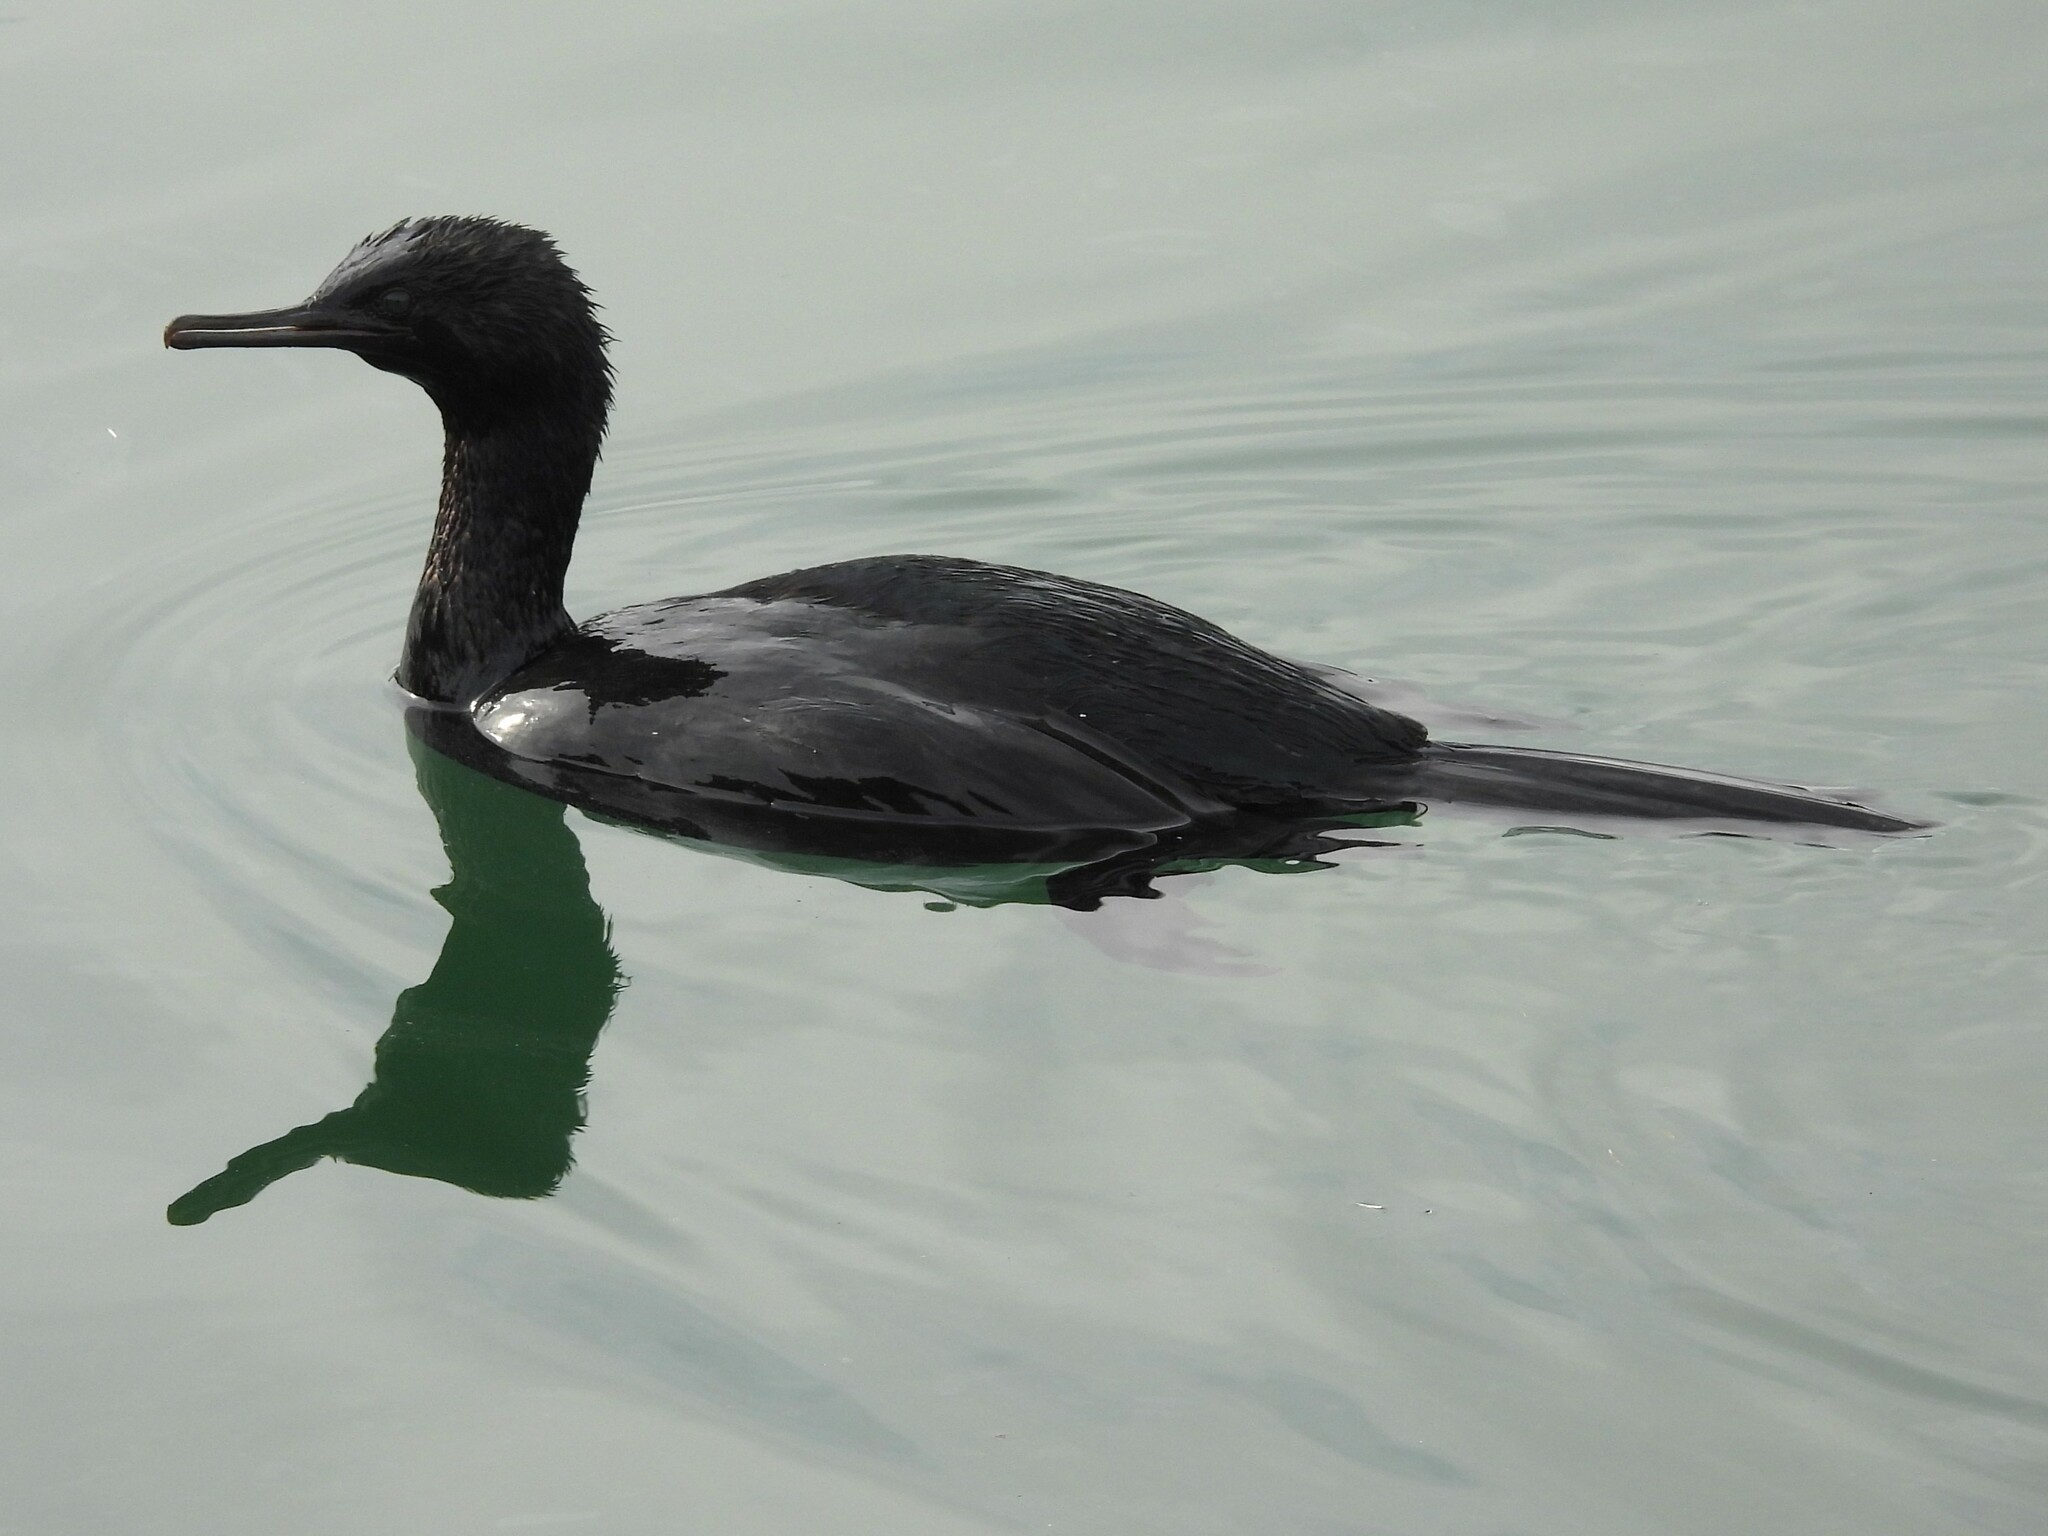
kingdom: Animalia
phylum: Chordata
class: Aves
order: Suliformes
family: Phalacrocoracidae
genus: Phalacrocorax
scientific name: Phalacrocorax pelagicus
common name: Pelagic cormorant
